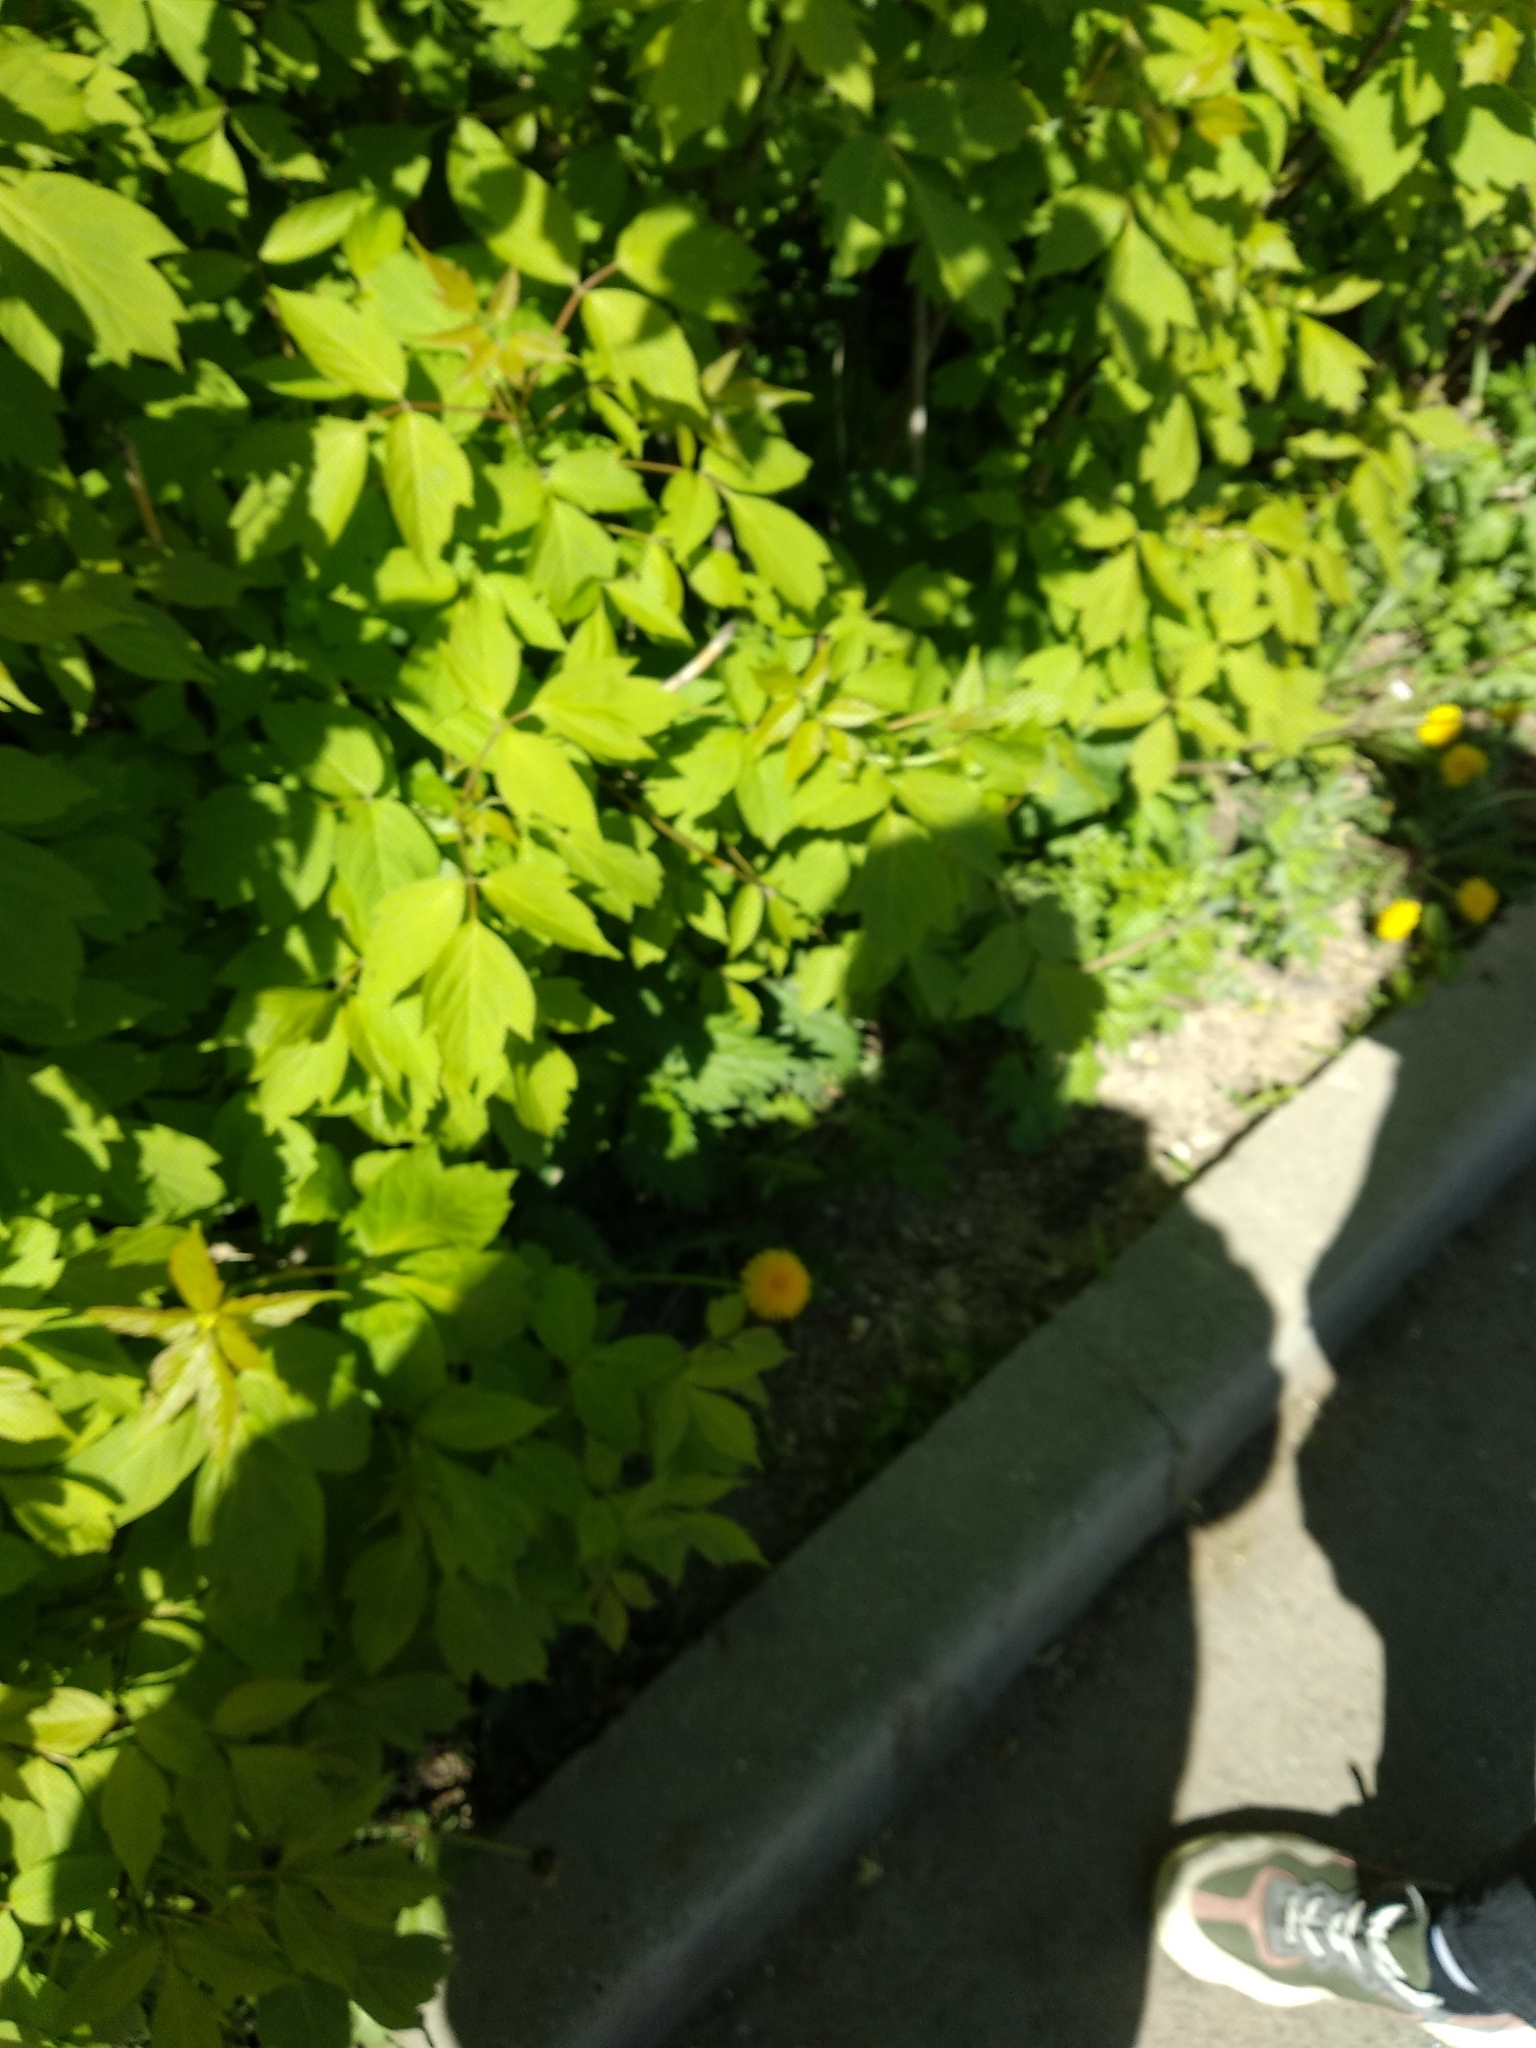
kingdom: Plantae
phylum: Tracheophyta
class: Magnoliopsida
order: Sapindales
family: Sapindaceae
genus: Acer
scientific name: Acer negundo
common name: Ashleaf maple
